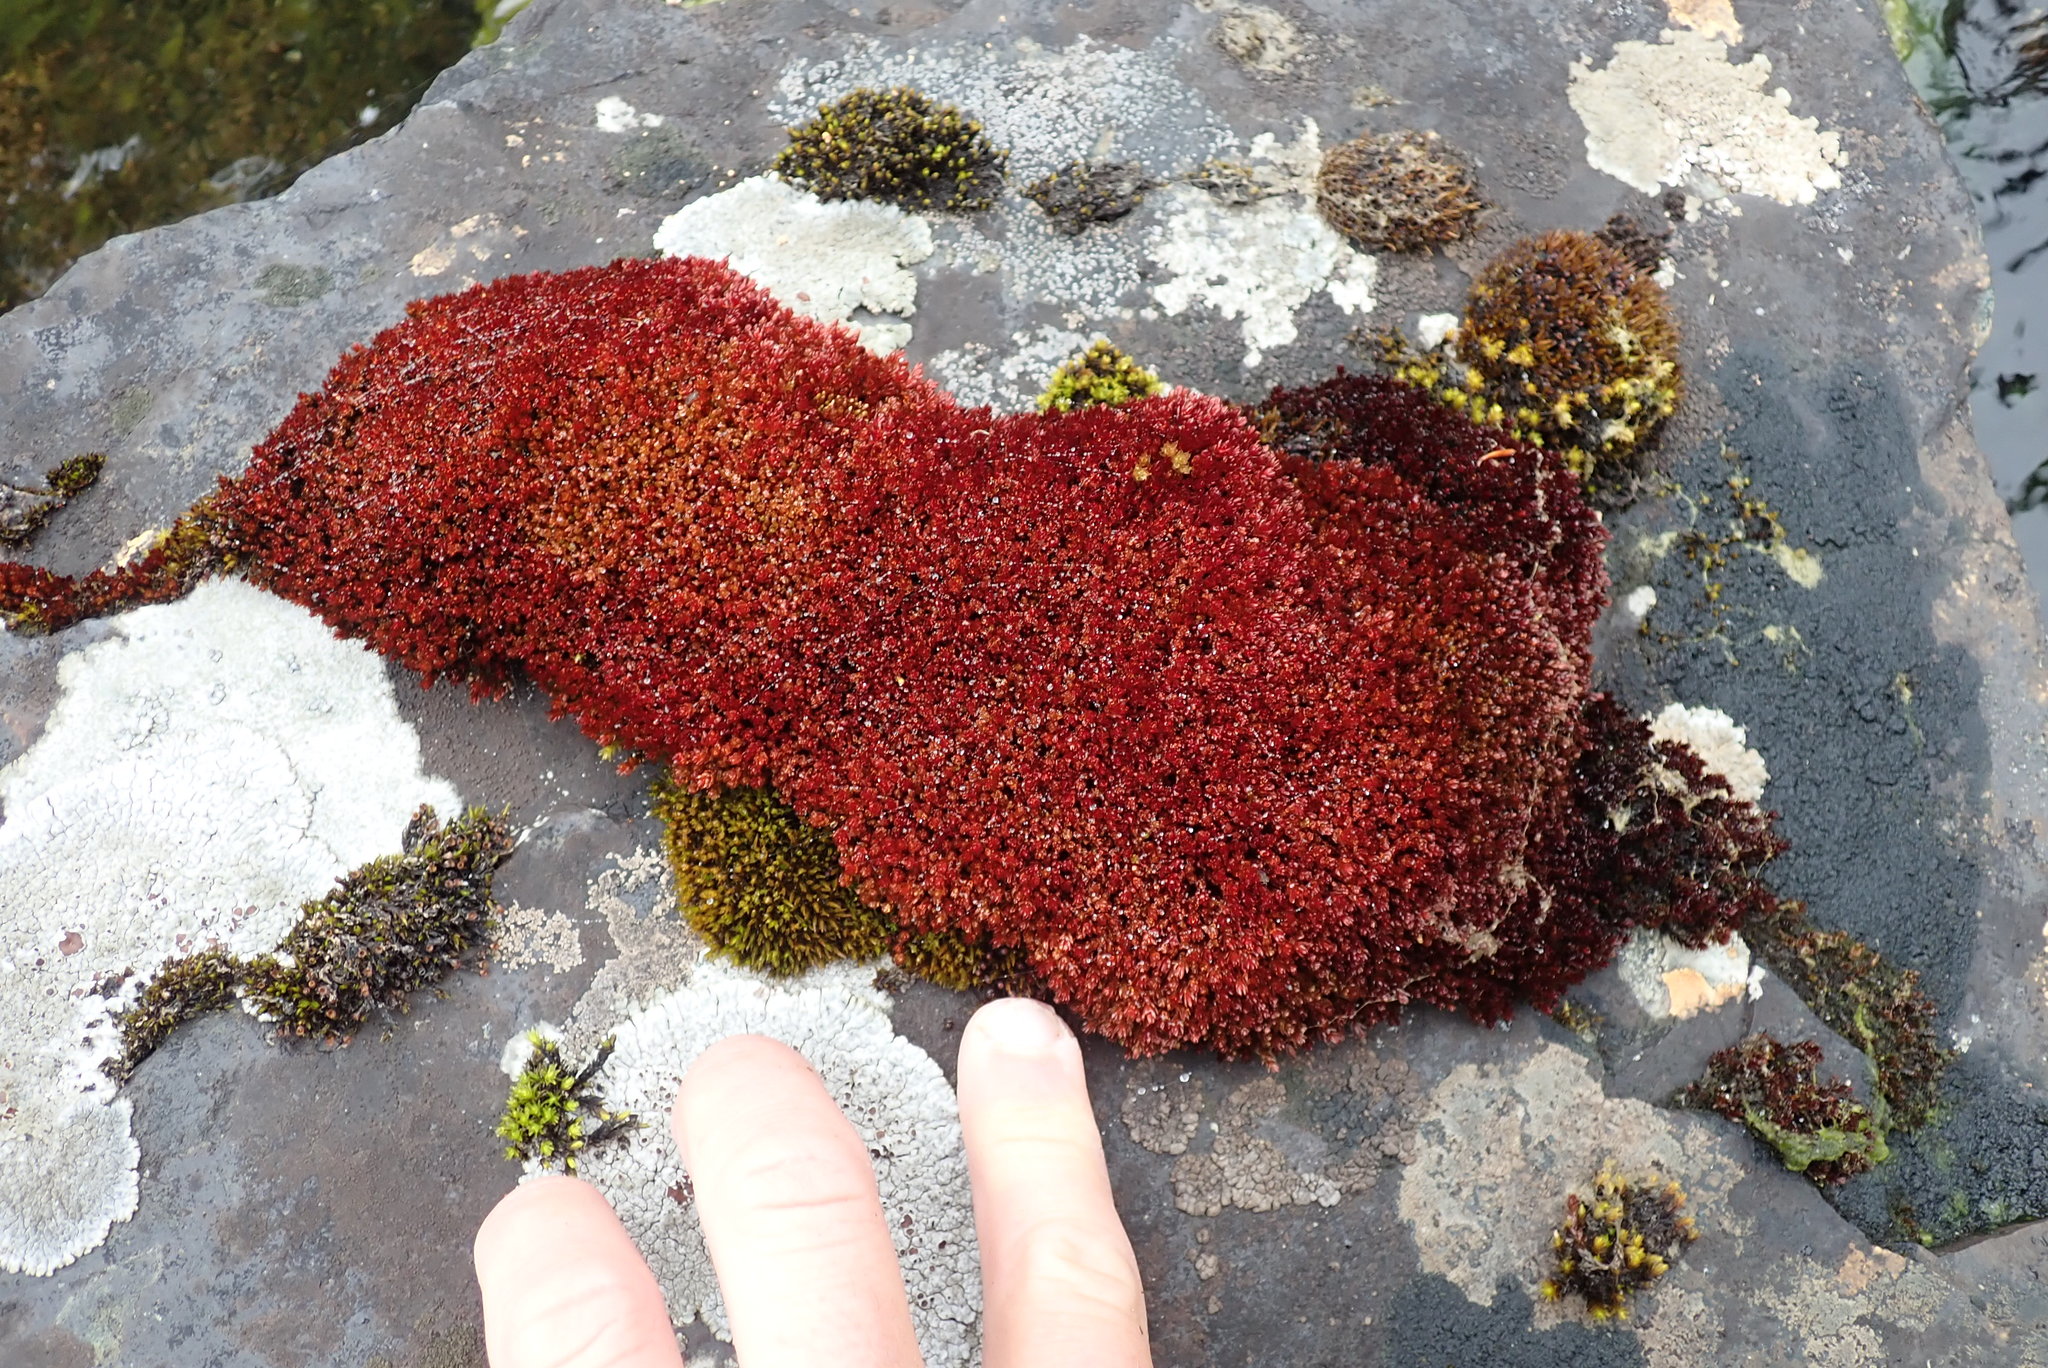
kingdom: Plantae
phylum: Bryophyta
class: Bryopsida
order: Bryales
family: Bryaceae
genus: Imbribryum
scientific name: Imbribryum miniatum
